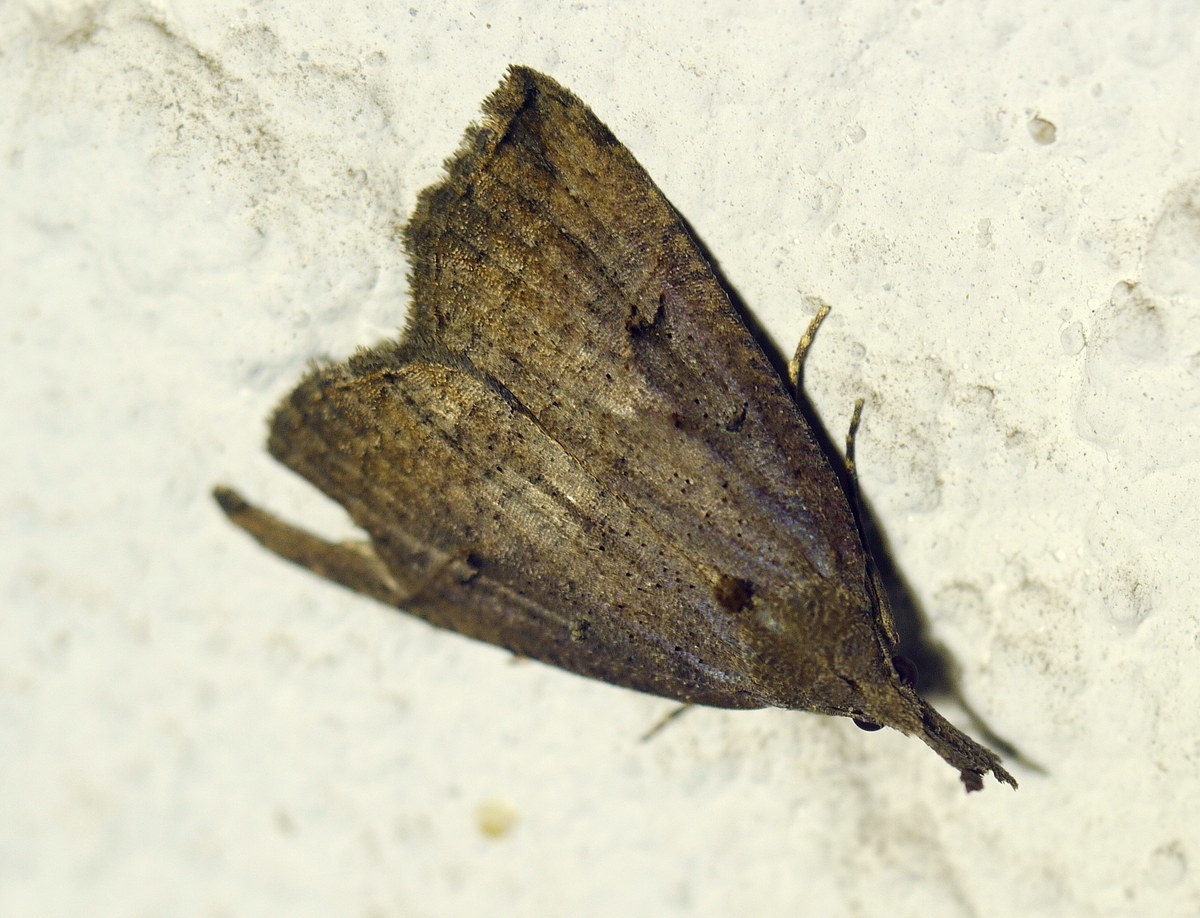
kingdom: Animalia
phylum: Arthropoda
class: Insecta
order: Lepidoptera
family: Erebidae
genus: Hypena
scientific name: Hypena rostralis
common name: Buttoned snout
